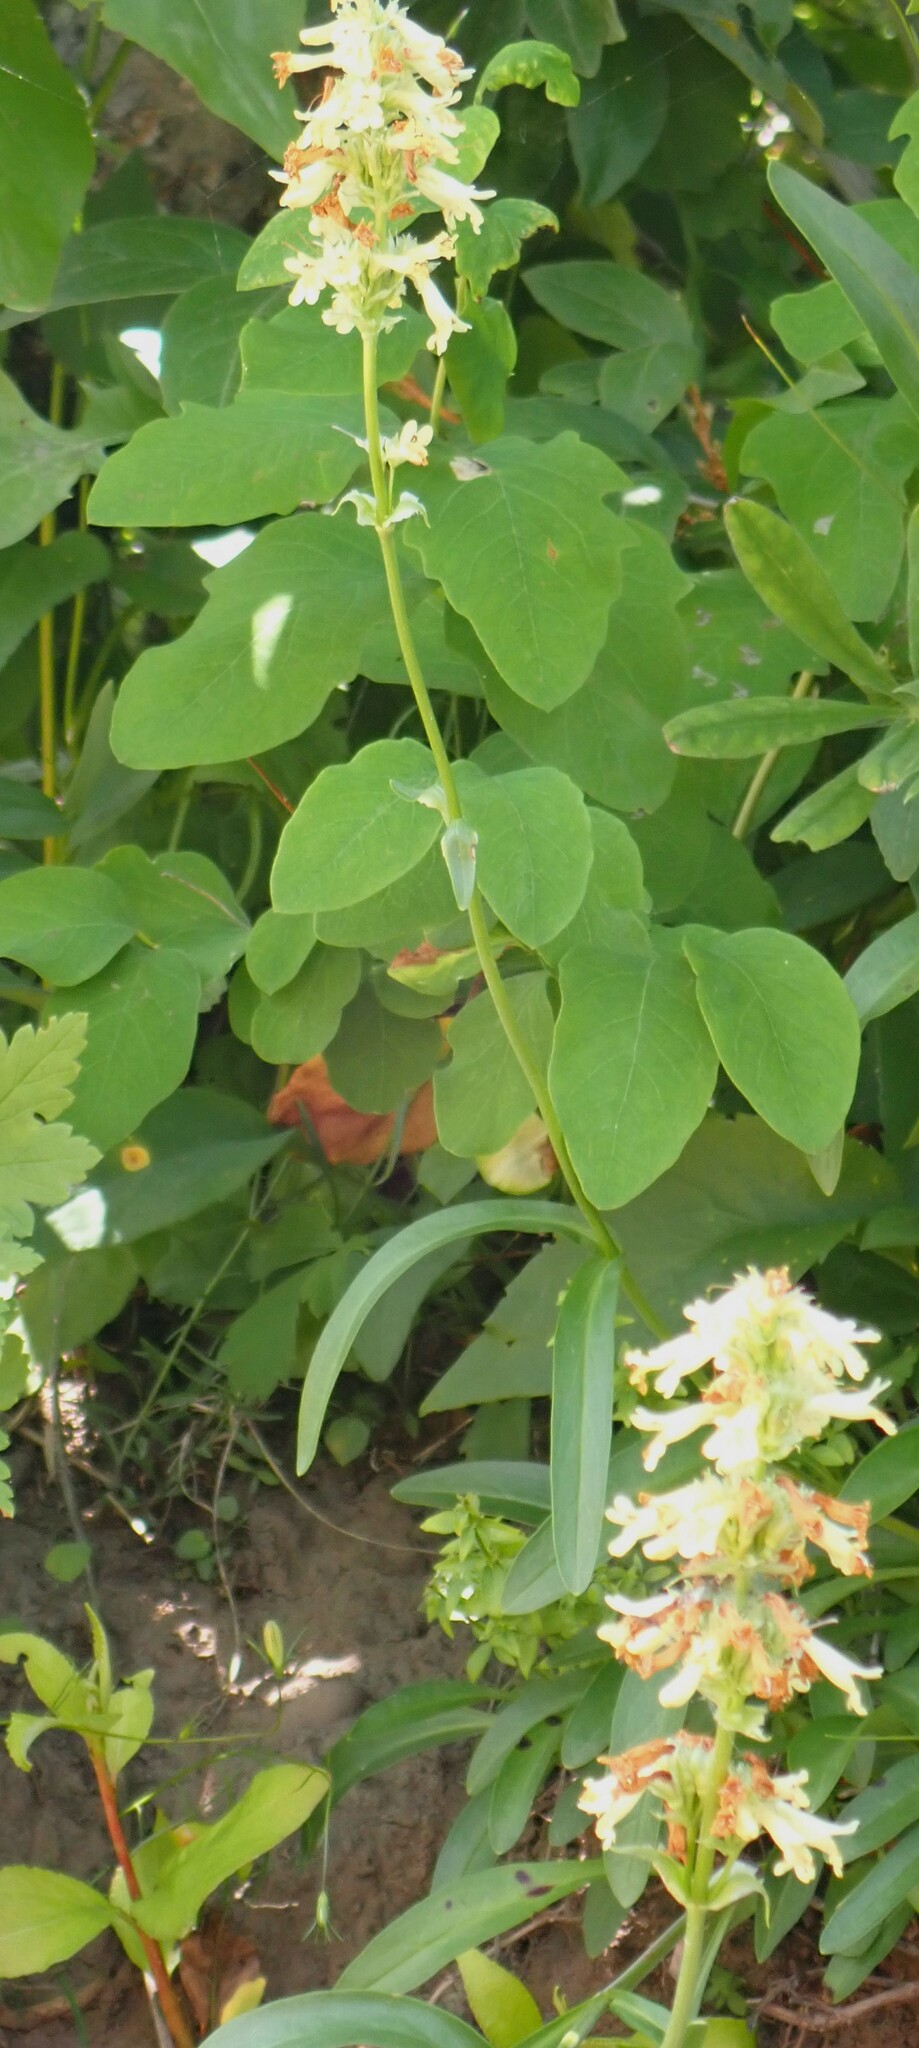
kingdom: Plantae
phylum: Tracheophyta
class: Magnoliopsida
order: Lamiales
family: Plantaginaceae
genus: Penstemon
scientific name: Penstemon confertus
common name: Lesser yellow beardtongue
